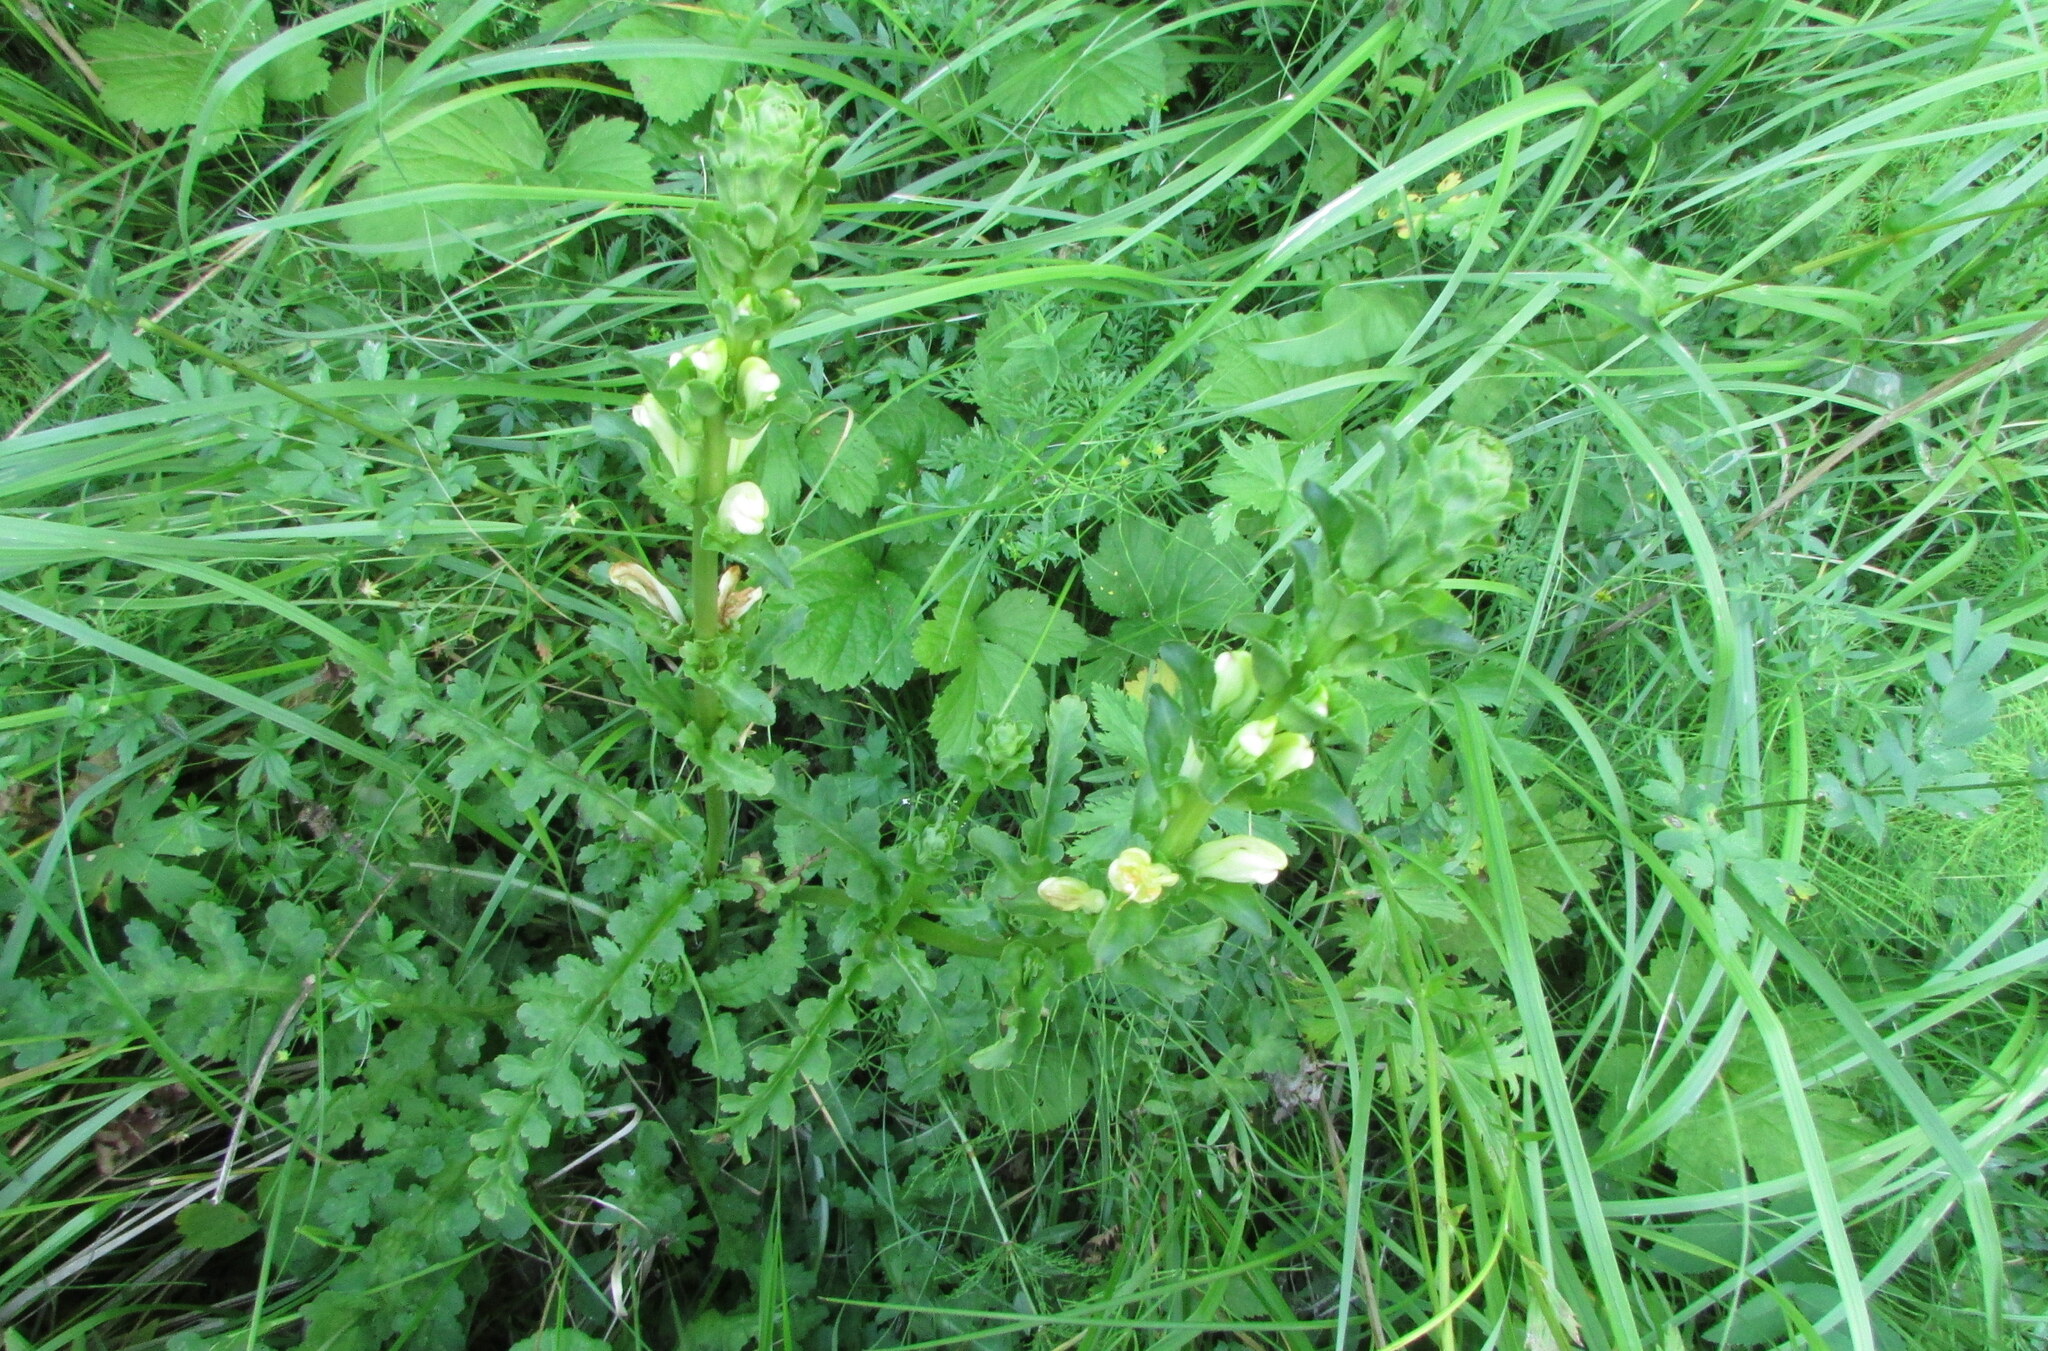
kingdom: Plantae
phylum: Tracheophyta
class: Magnoliopsida
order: Lamiales
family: Orobanchaceae
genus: Pedicularis
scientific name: Pedicularis sceptrum-carolinum
